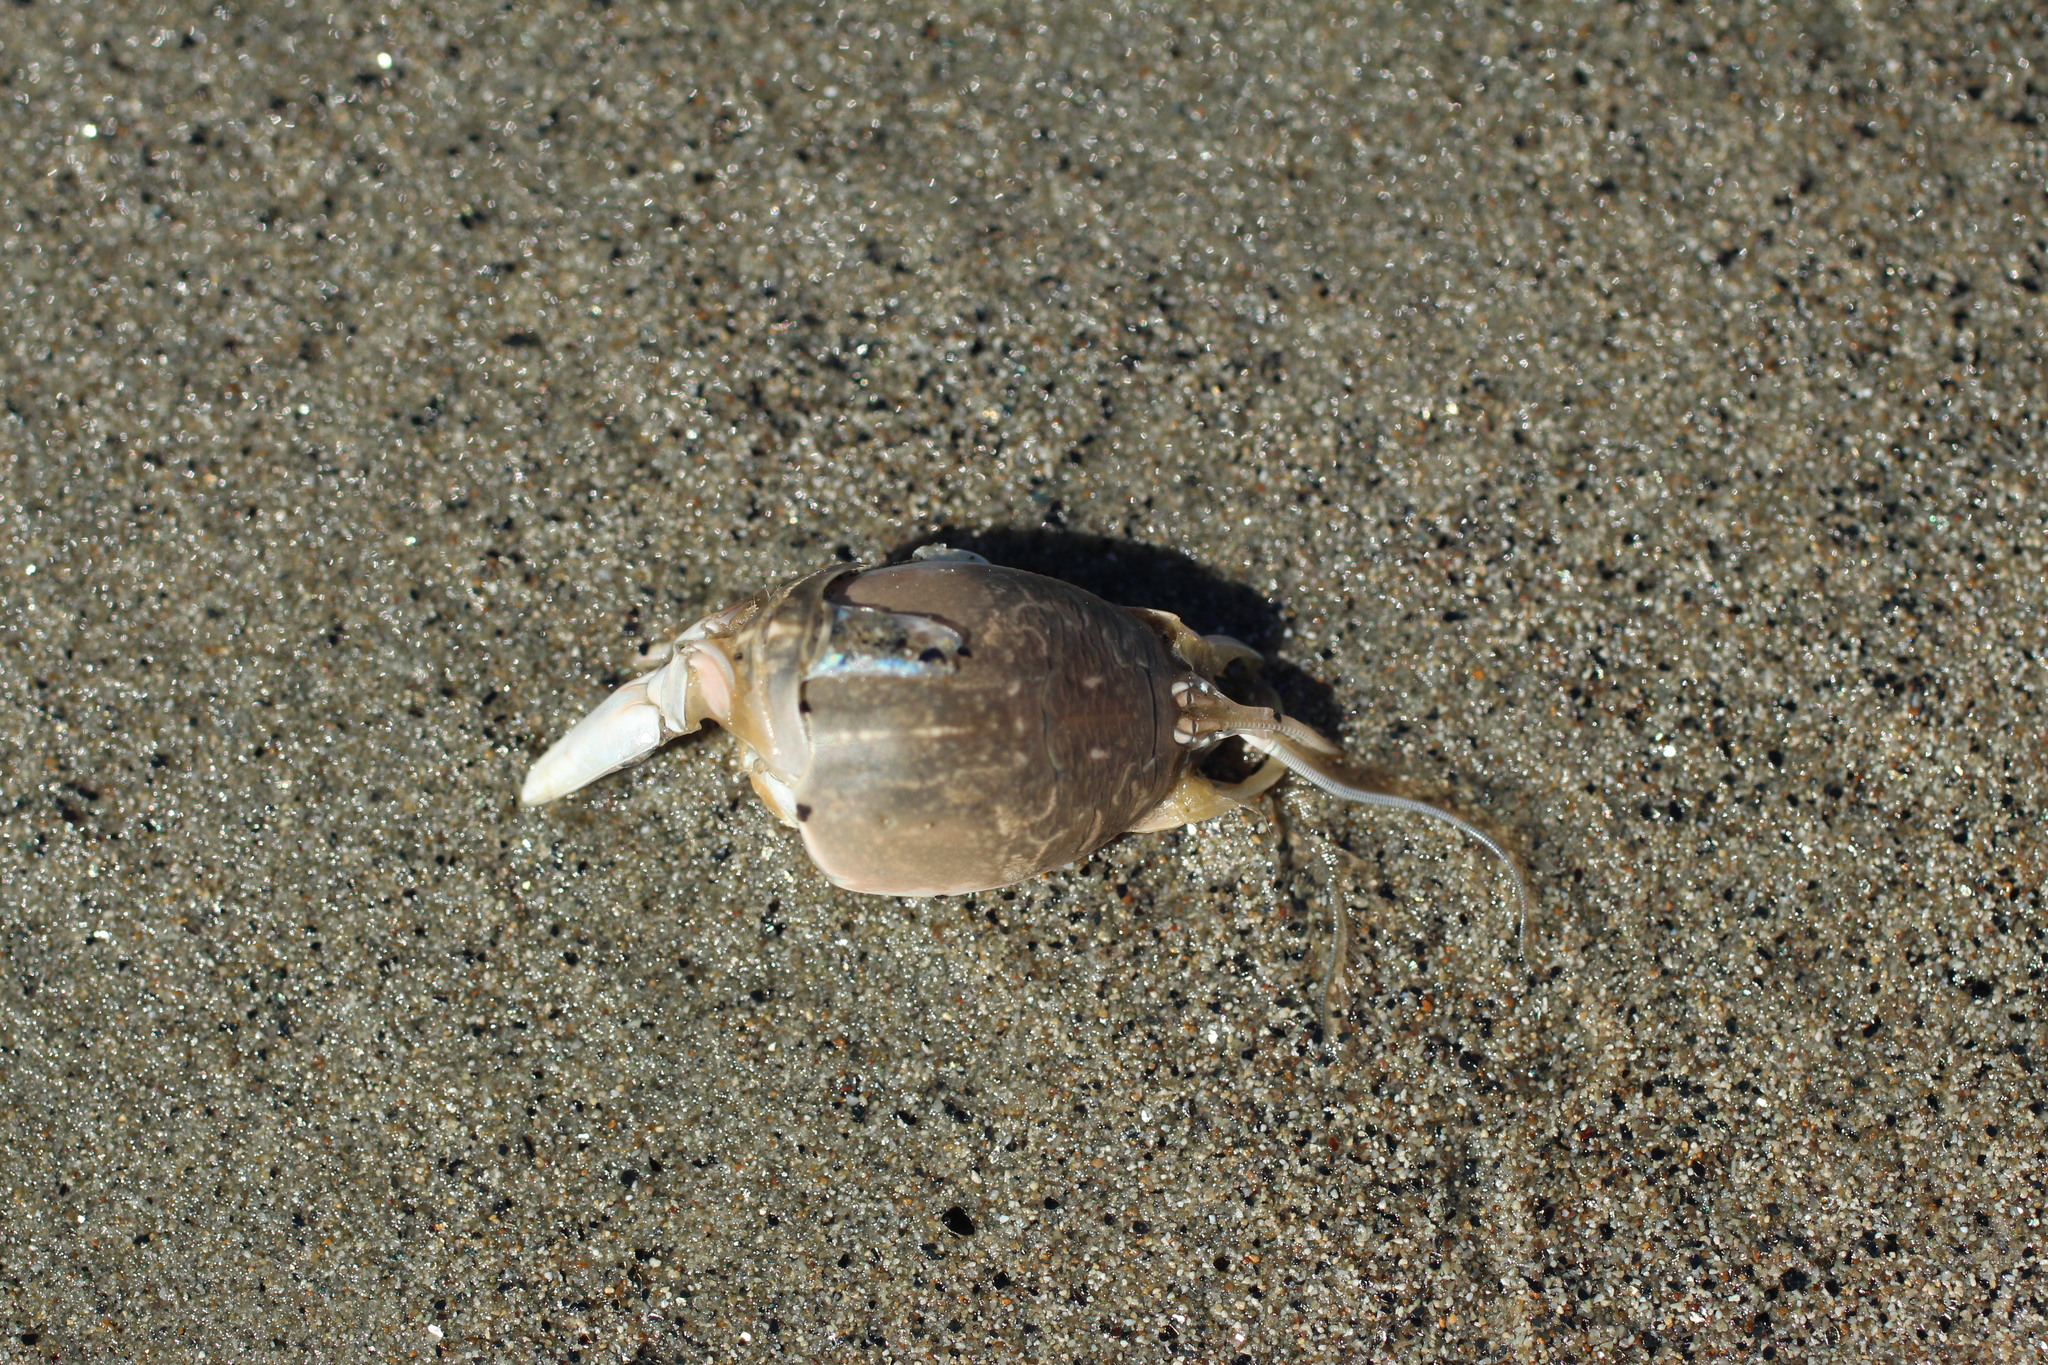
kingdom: Animalia
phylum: Arthropoda
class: Malacostraca
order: Decapoda
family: Hippidae
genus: Emerita
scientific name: Emerita analoga
